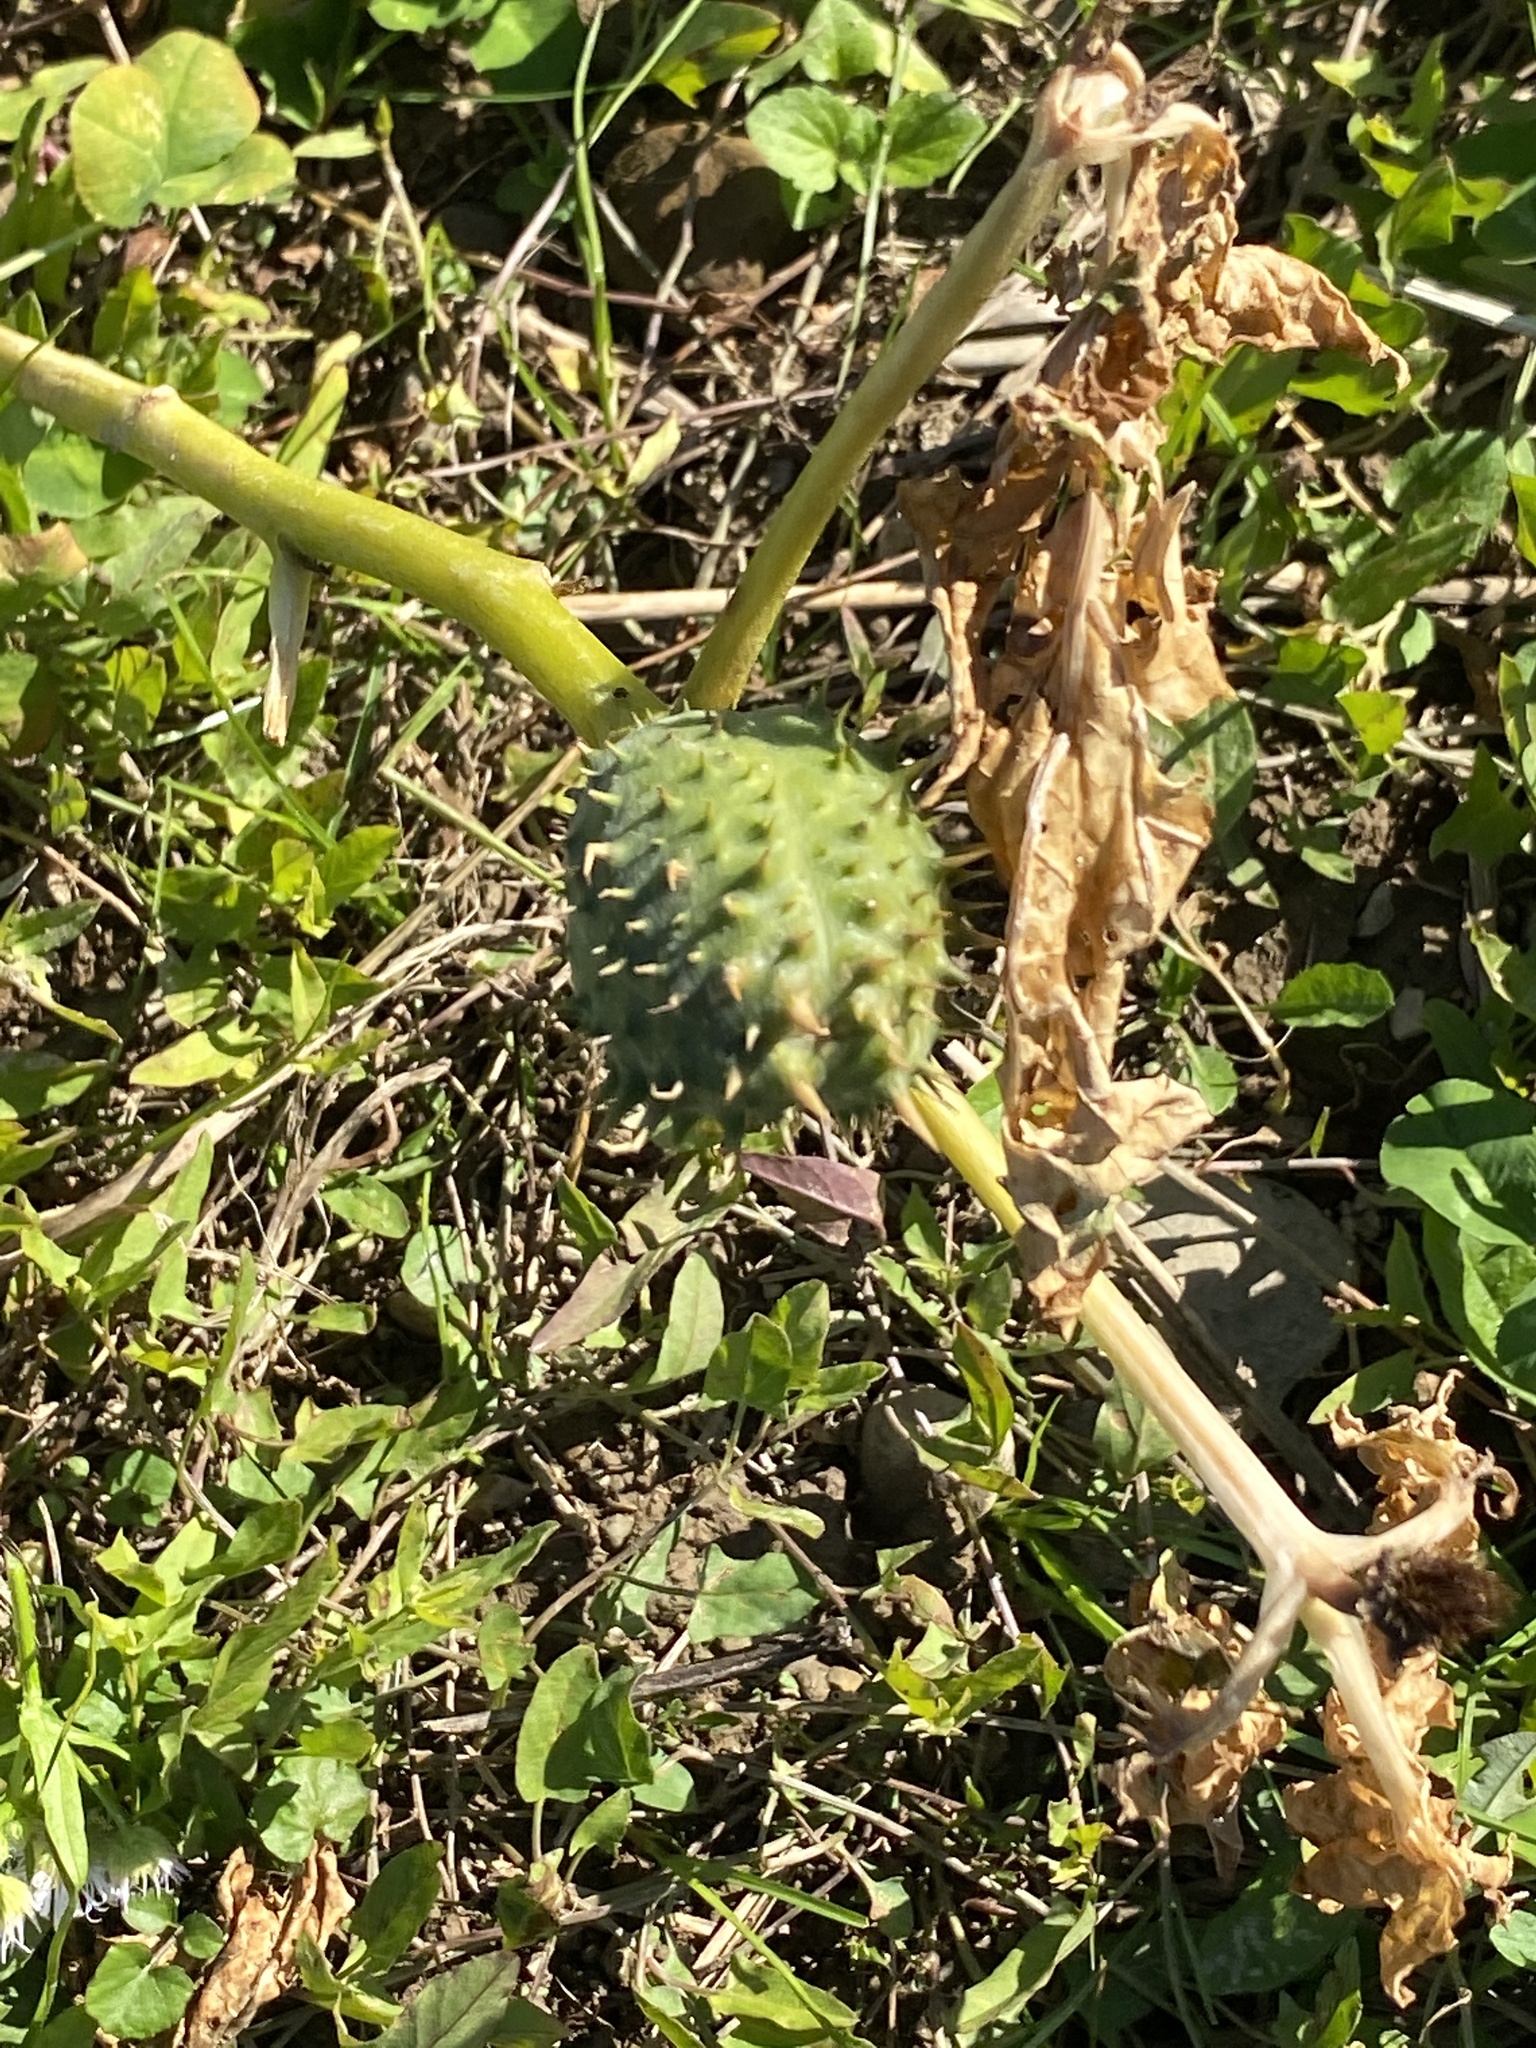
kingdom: Plantae
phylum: Tracheophyta
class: Magnoliopsida
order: Solanales
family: Solanaceae
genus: Datura
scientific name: Datura stramonium
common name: Thorn-apple
